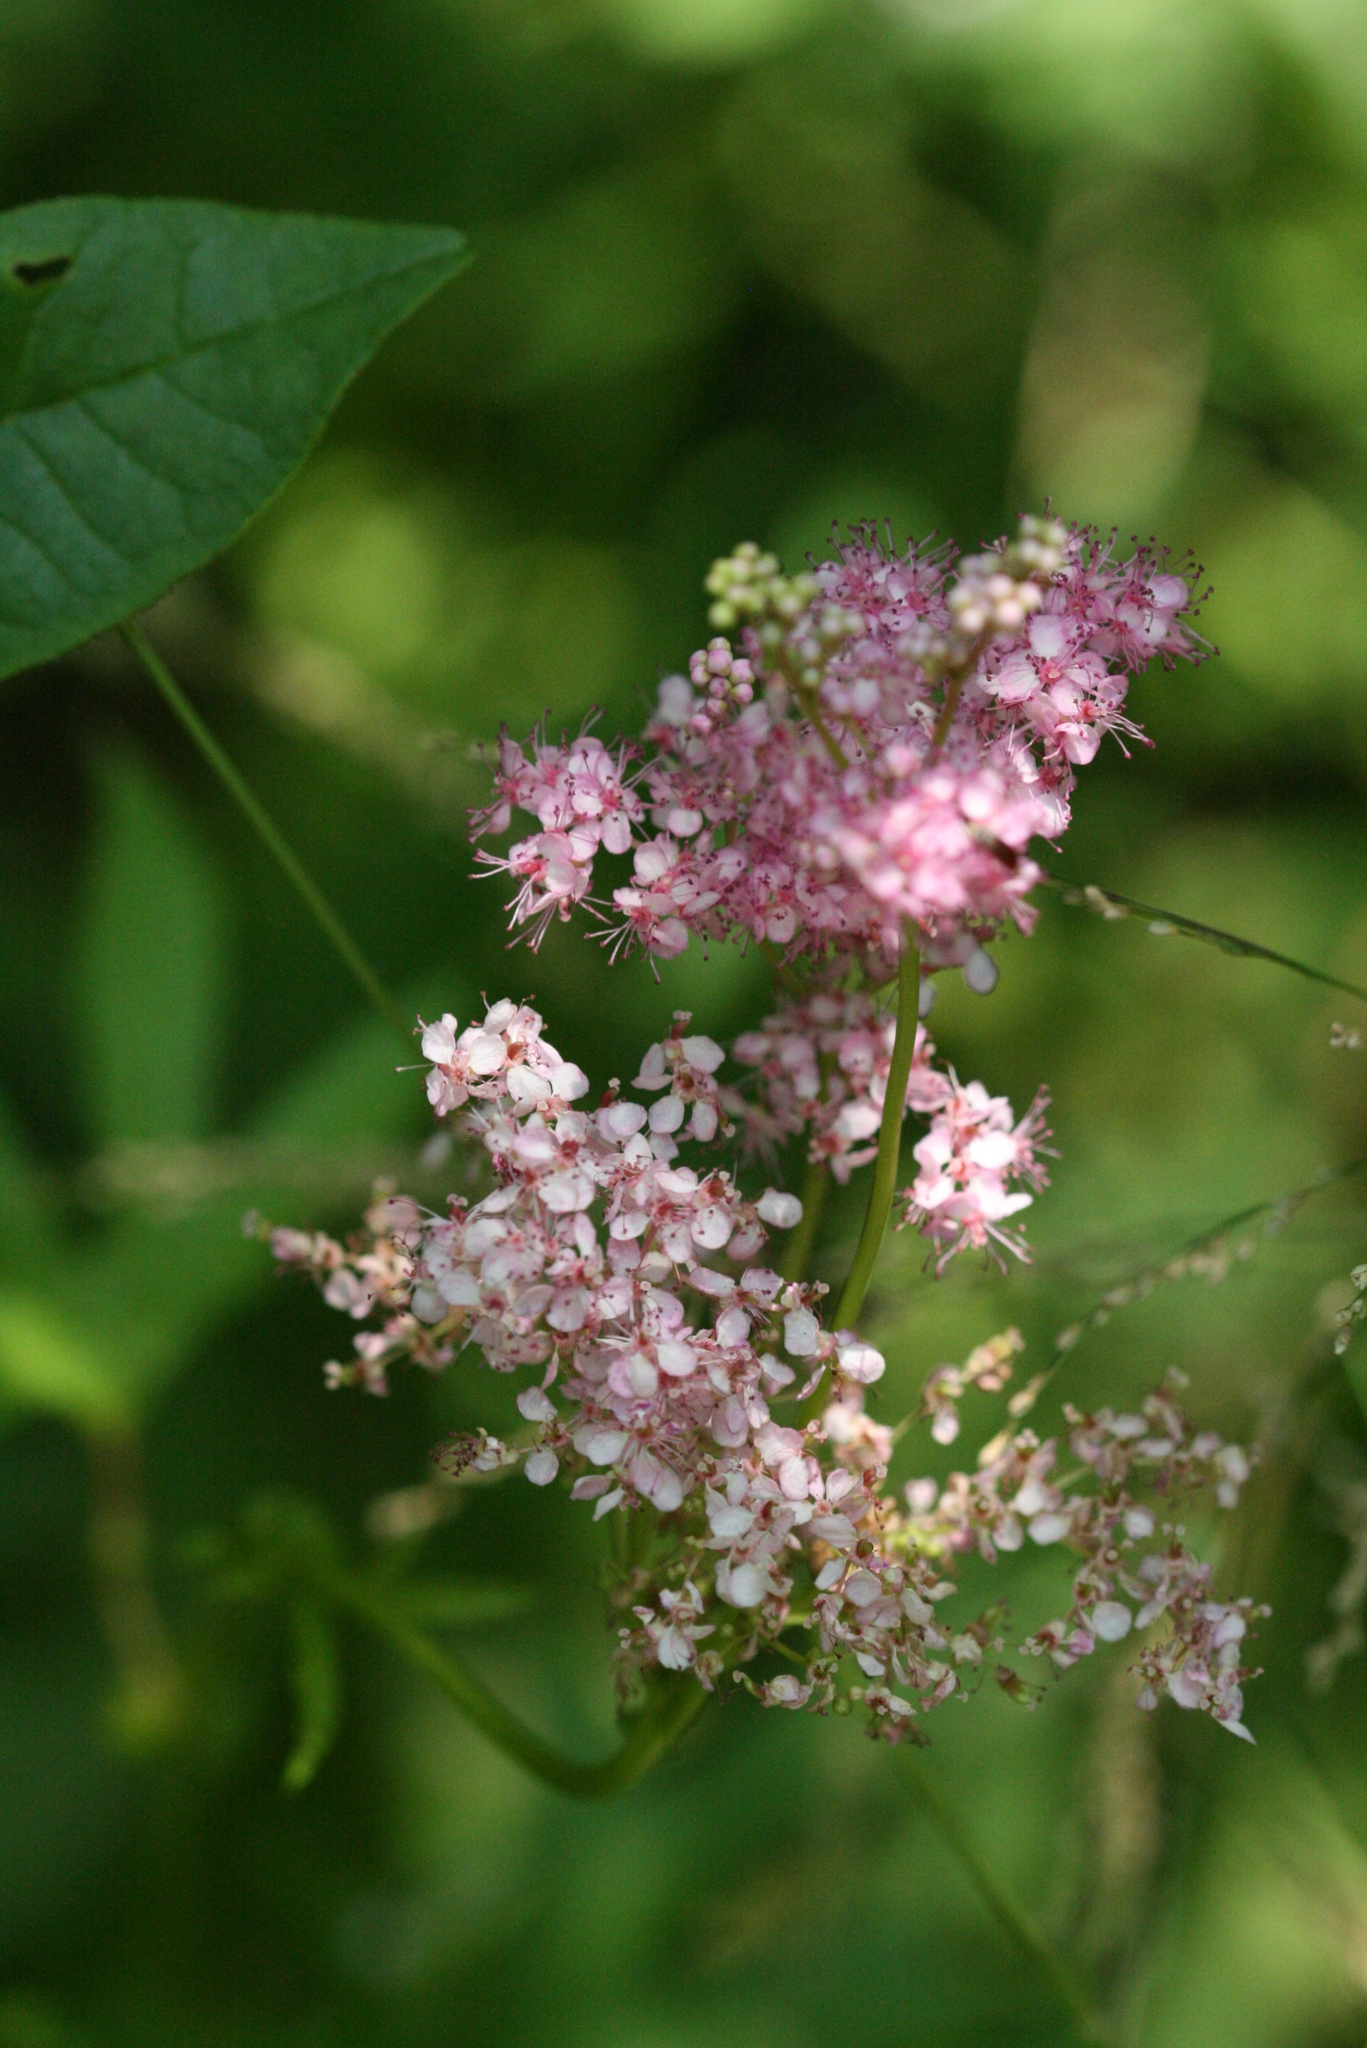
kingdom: Plantae
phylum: Tracheophyta
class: Magnoliopsida
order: Rosales
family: Rosaceae
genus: Filipendula
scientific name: Filipendula rubra
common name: Queen-of-the-prairie
